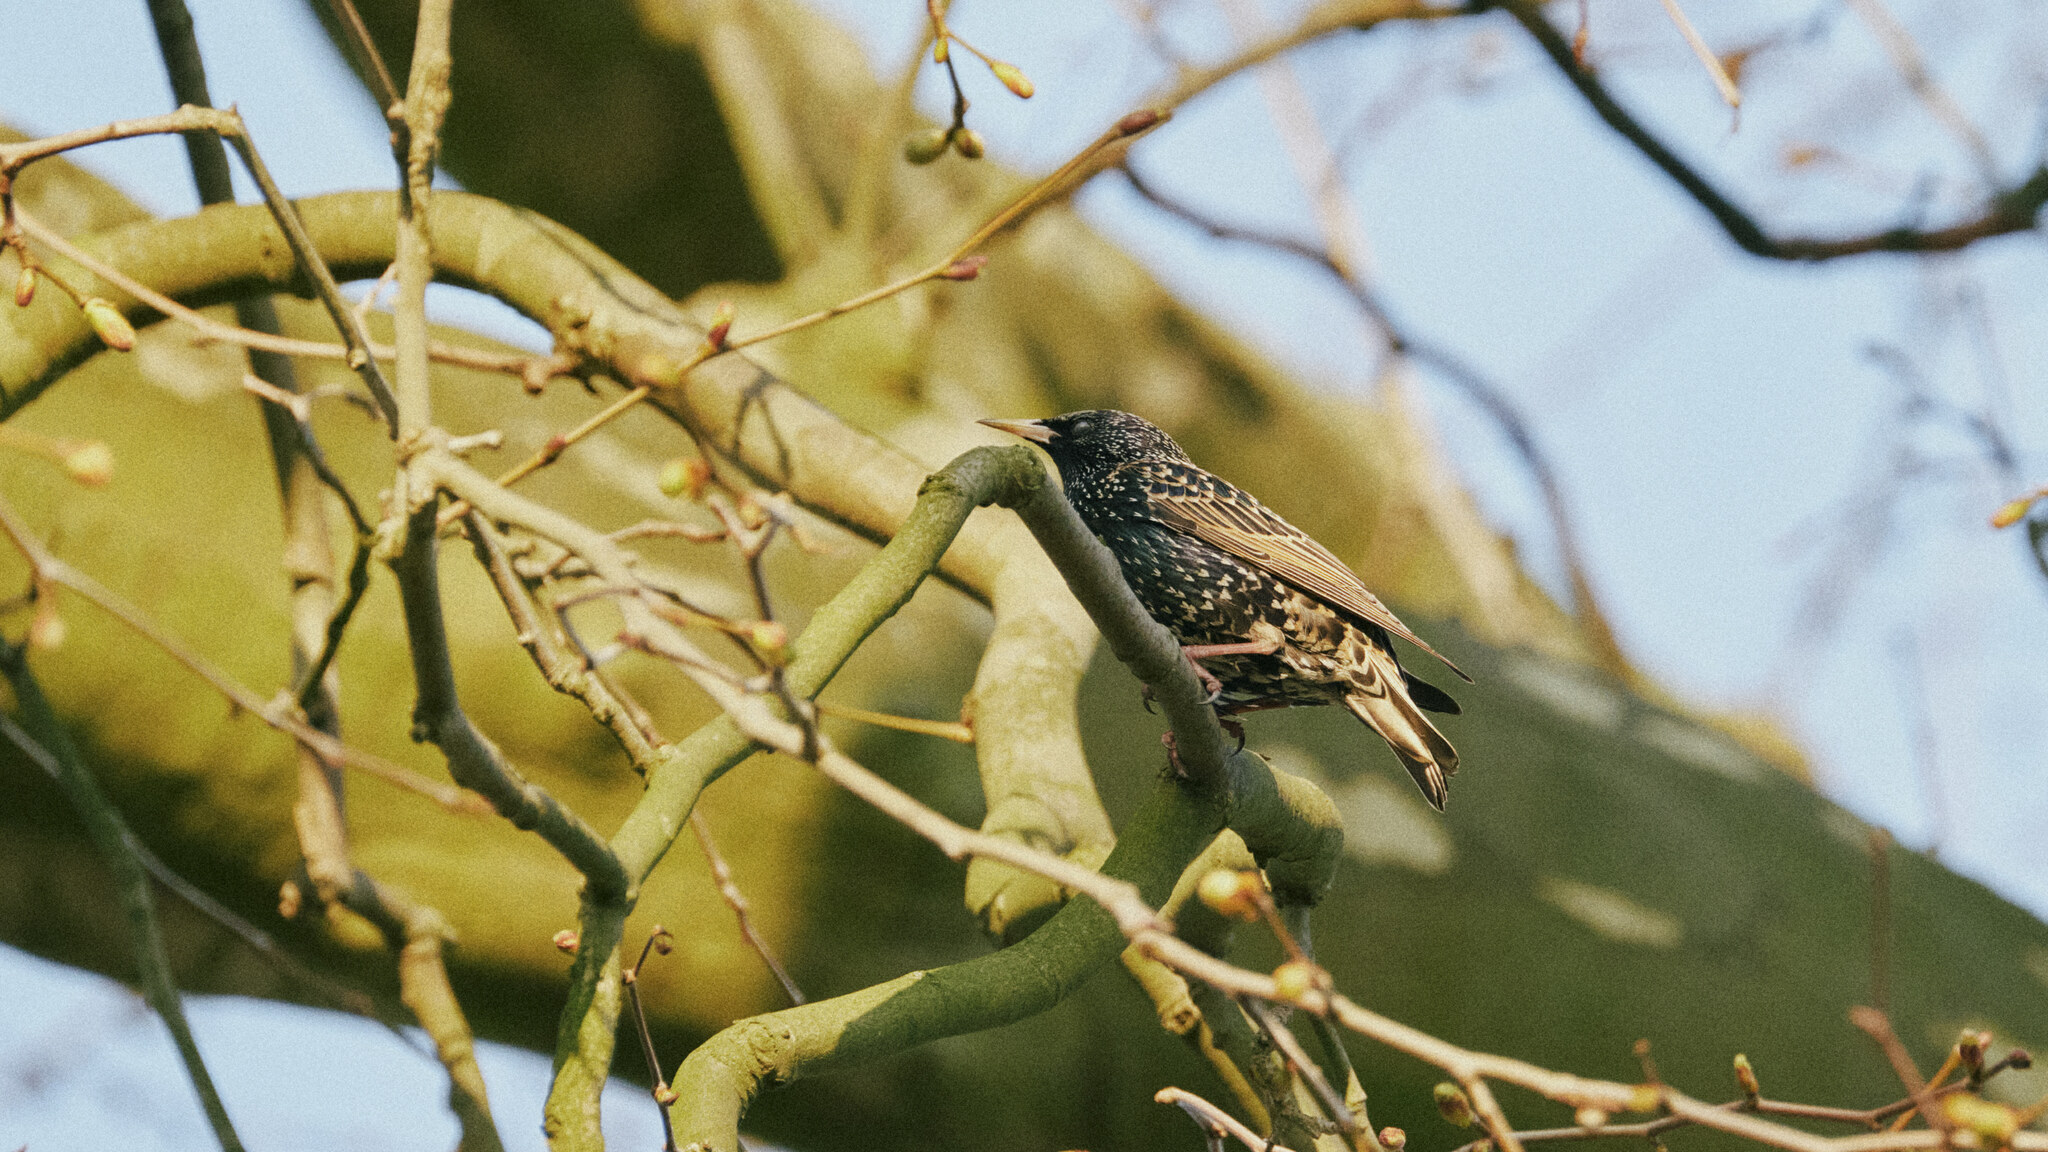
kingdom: Animalia
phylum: Chordata
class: Aves
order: Passeriformes
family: Sturnidae
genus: Sturnus
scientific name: Sturnus vulgaris
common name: Common starling
